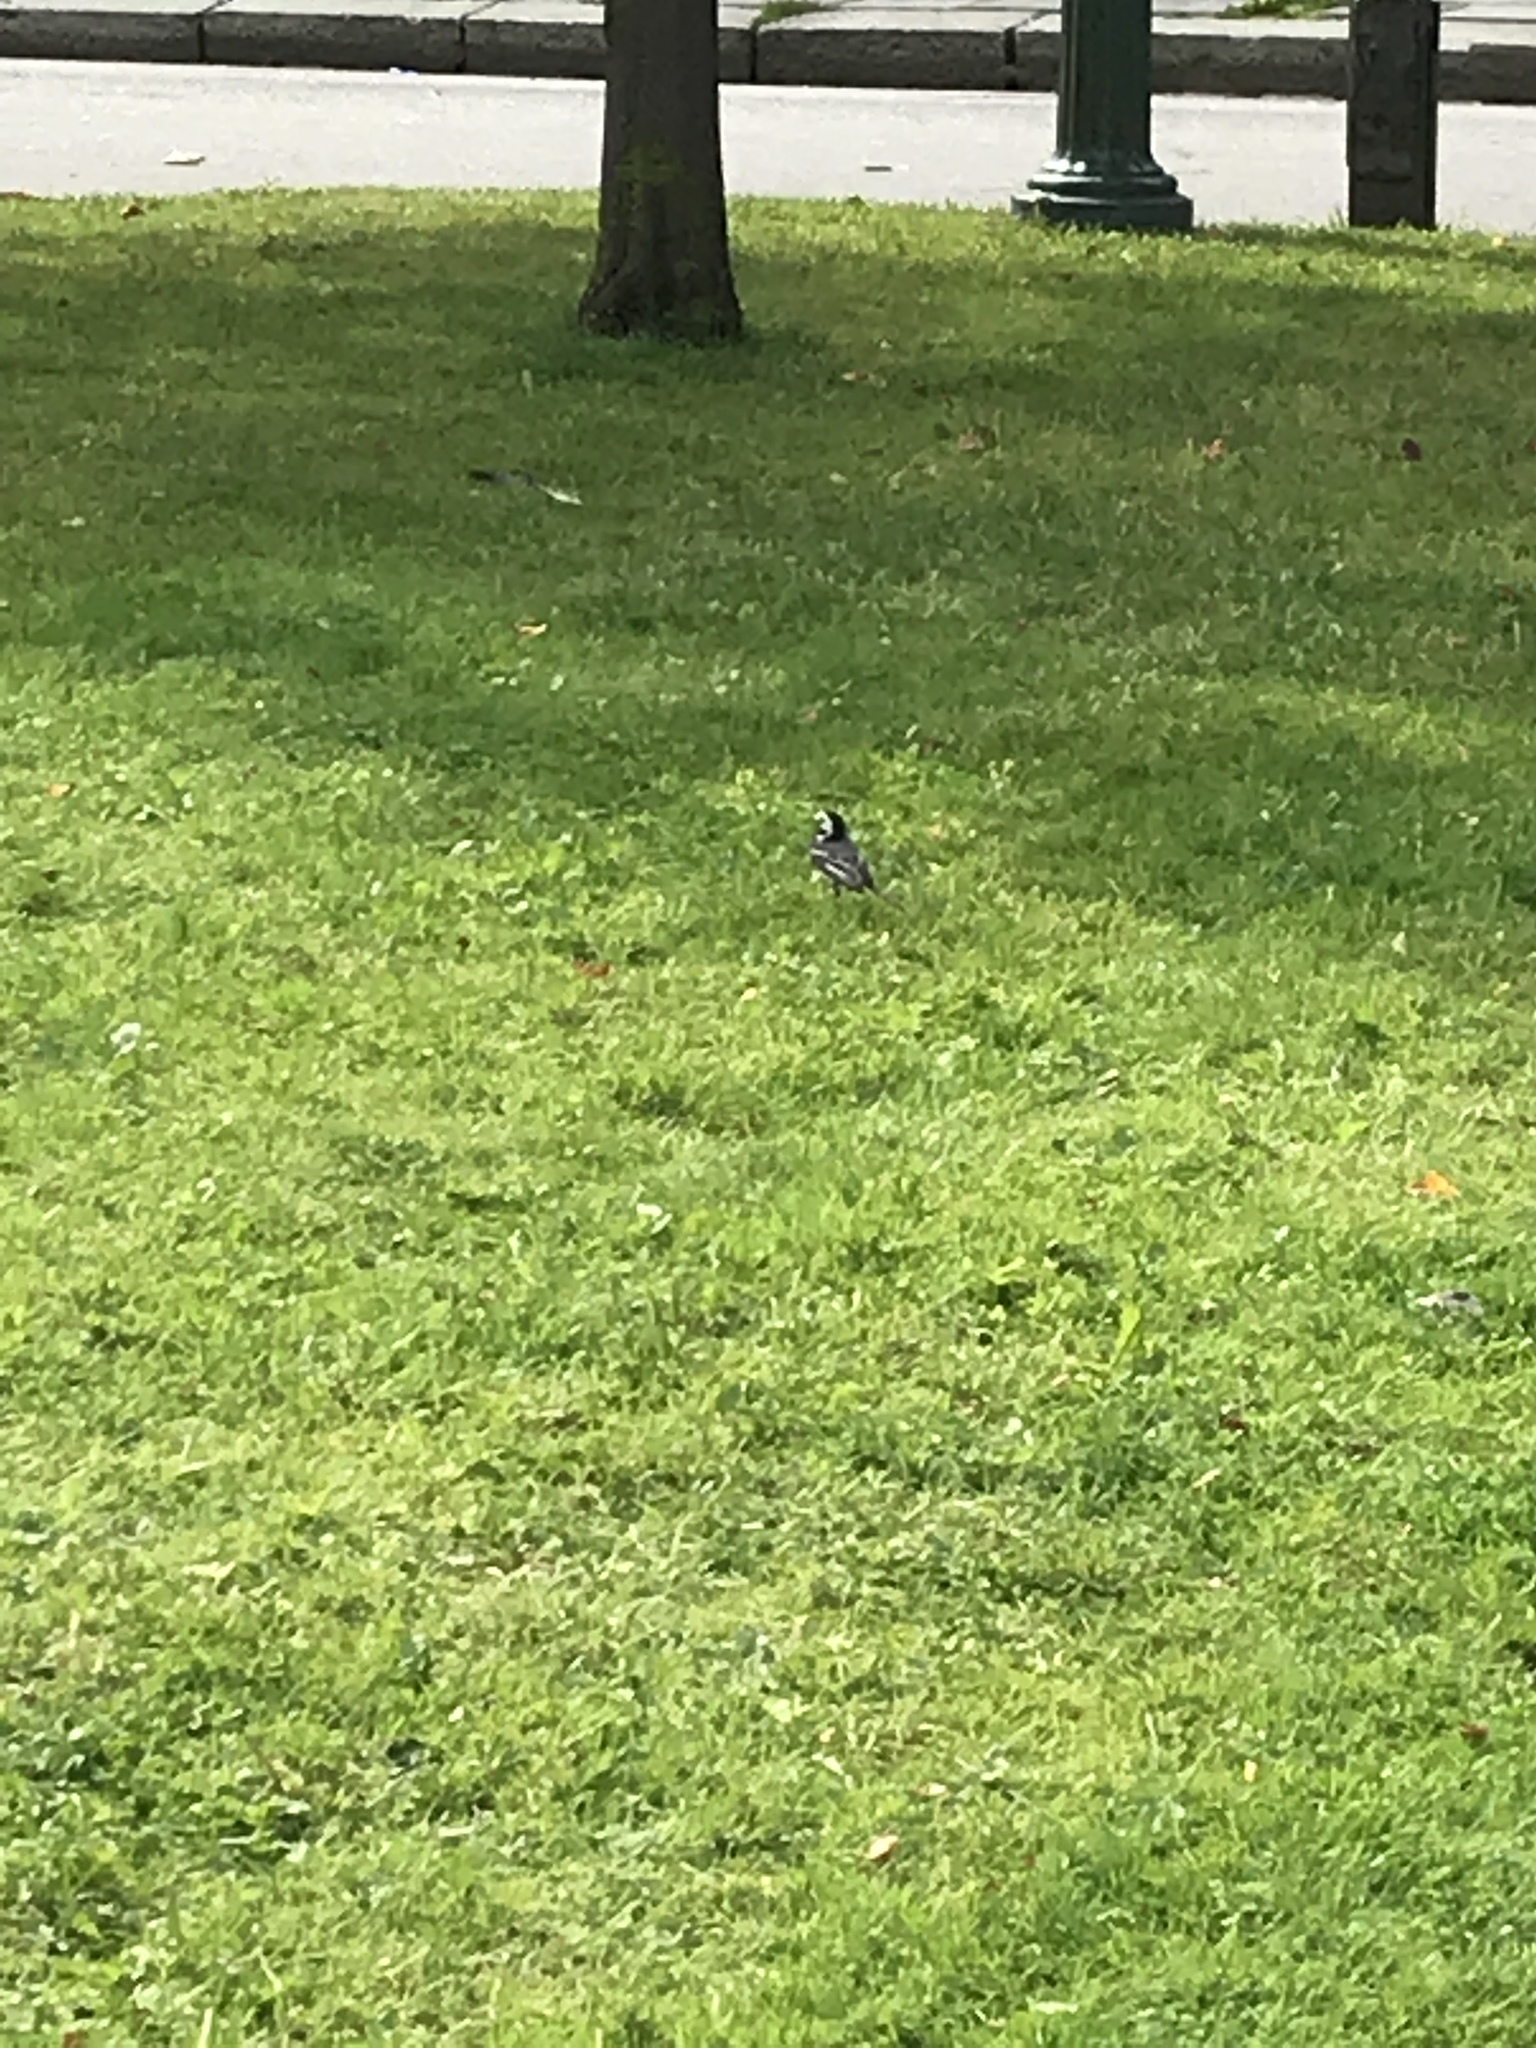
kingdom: Animalia
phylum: Chordata
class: Aves
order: Passeriformes
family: Motacillidae
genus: Motacilla
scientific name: Motacilla alba
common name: White wagtail
